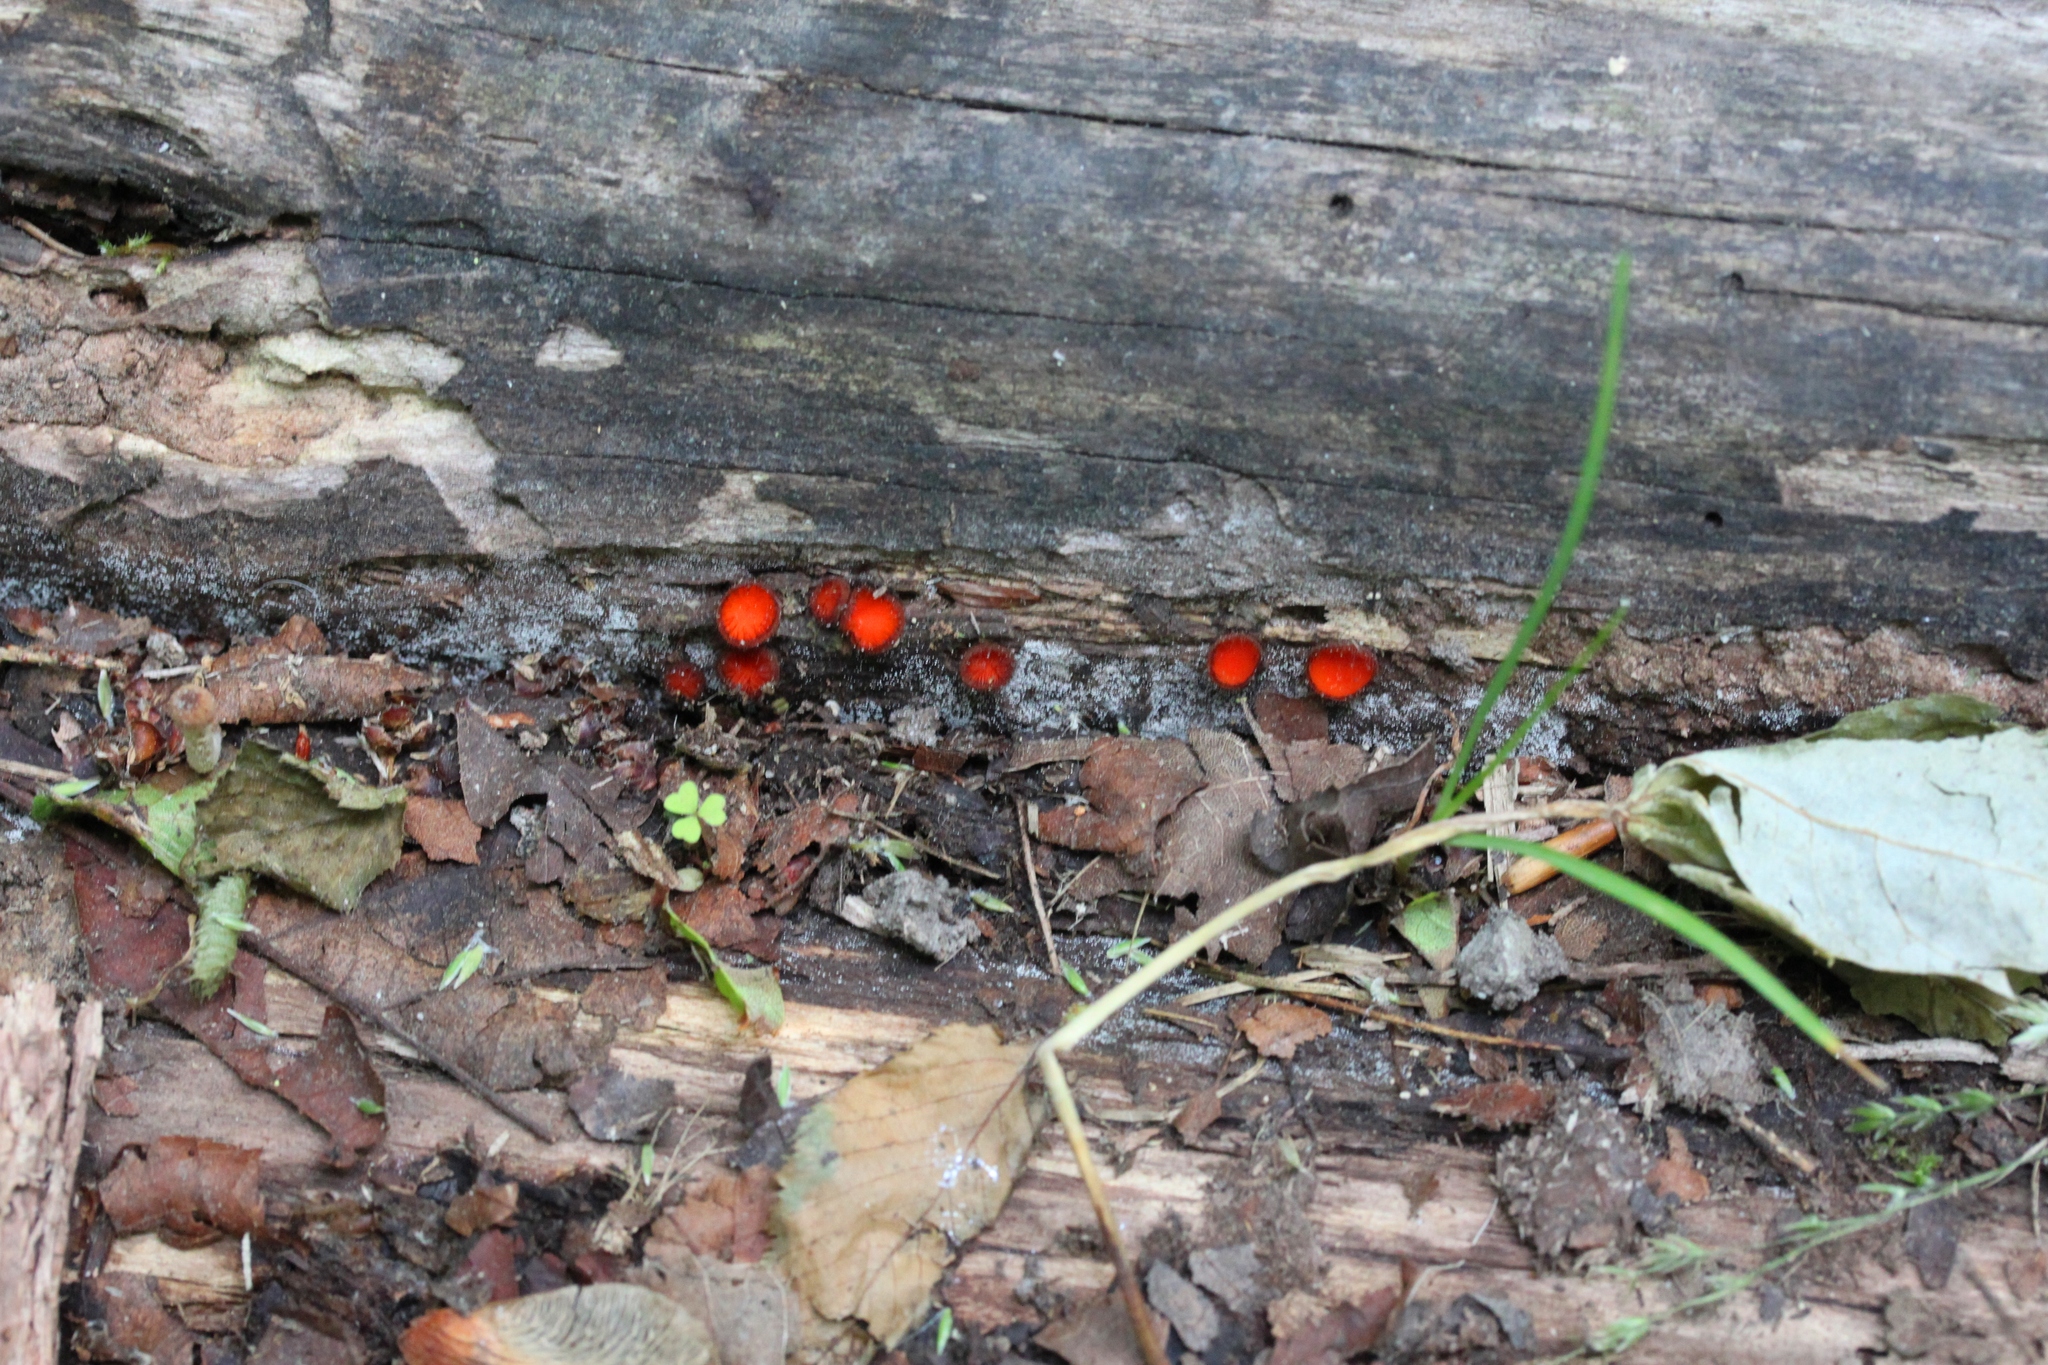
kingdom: Fungi
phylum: Ascomycota
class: Pezizomycetes
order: Pezizales
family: Pyronemataceae
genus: Scutellinia
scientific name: Scutellinia scutellata
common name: Common eyelash
